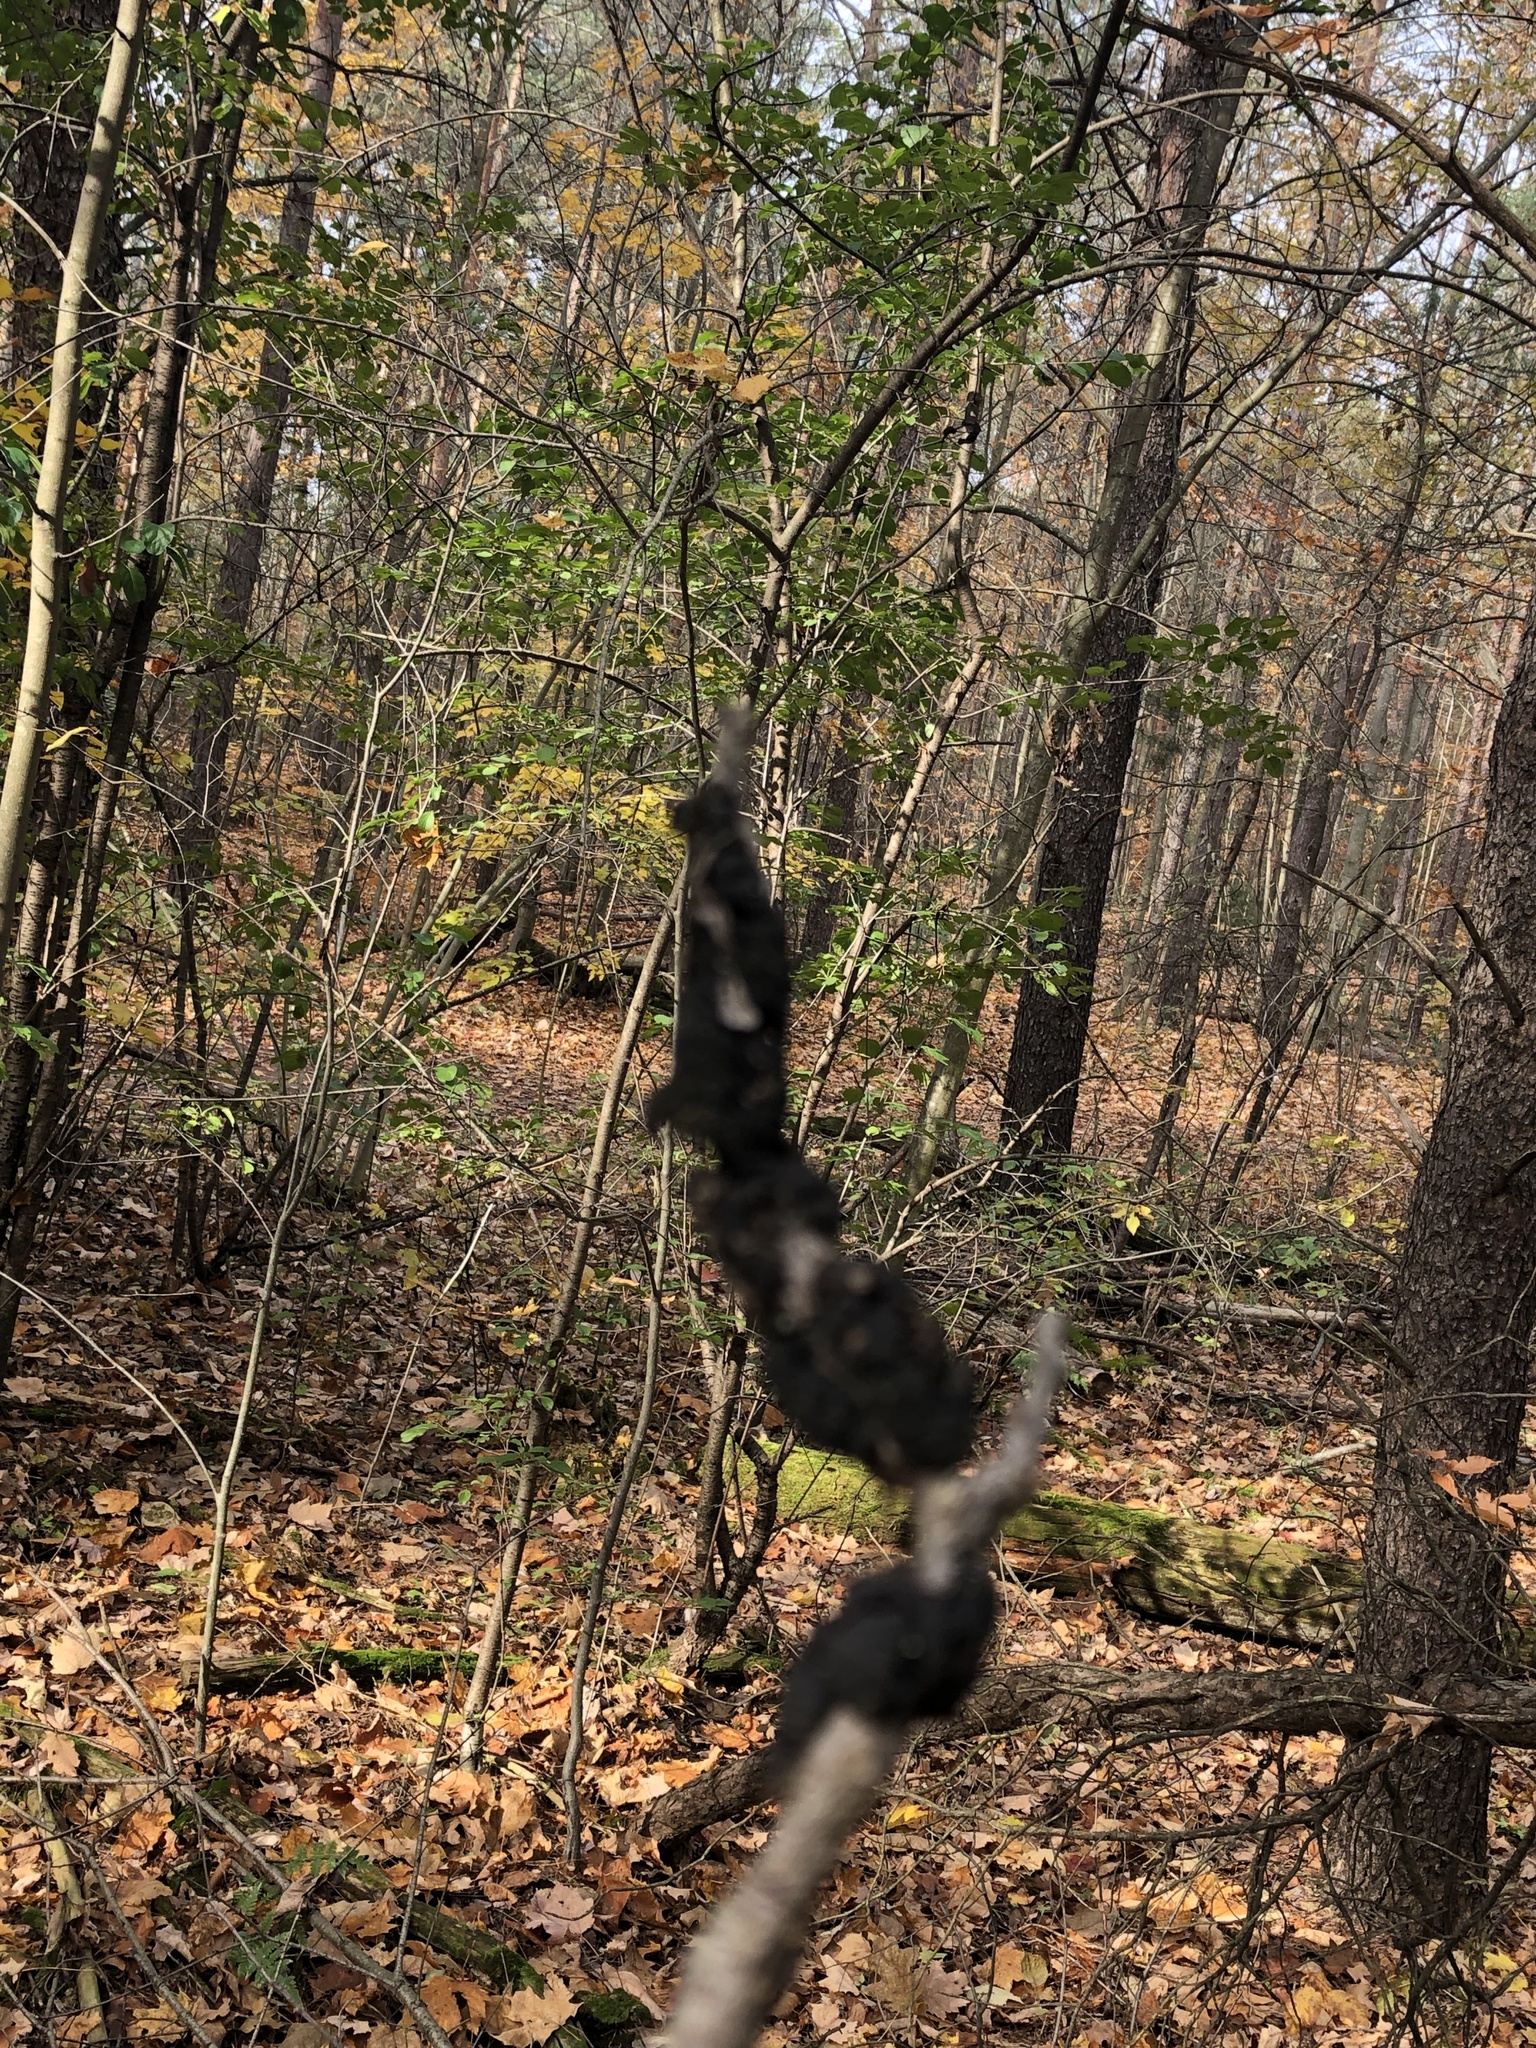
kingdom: Fungi
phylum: Ascomycota
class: Dothideomycetes
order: Venturiales
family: Venturiaceae
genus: Apiosporina
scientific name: Apiosporina morbosa
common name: Black knot
